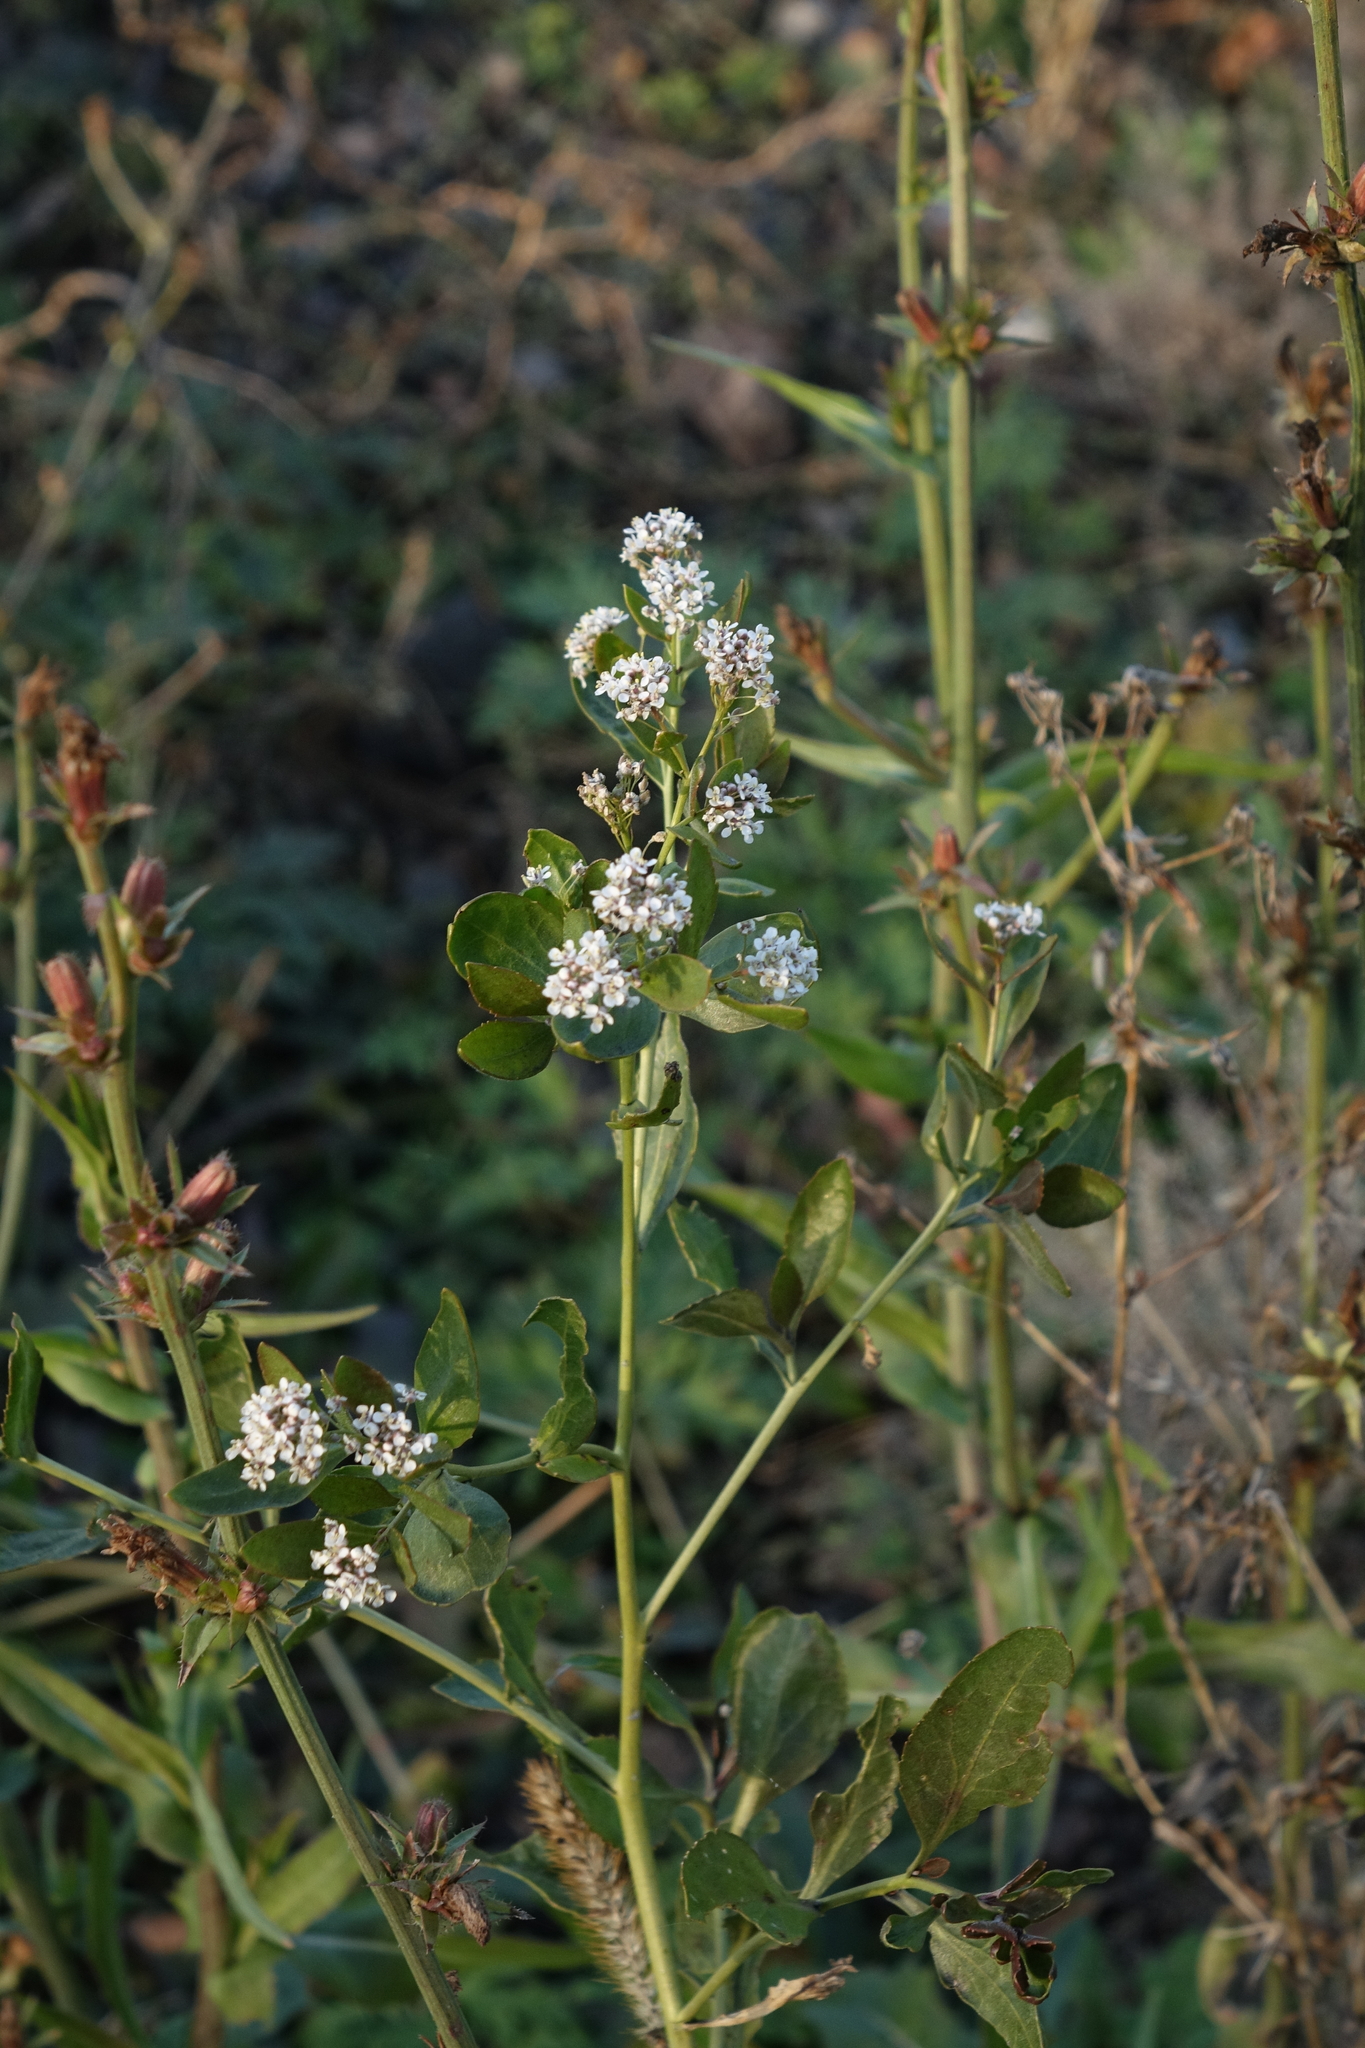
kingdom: Plantae
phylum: Tracheophyta
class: Magnoliopsida
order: Brassicales
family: Brassicaceae
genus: Lepidium
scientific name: Lepidium latifolium
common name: Dittander
